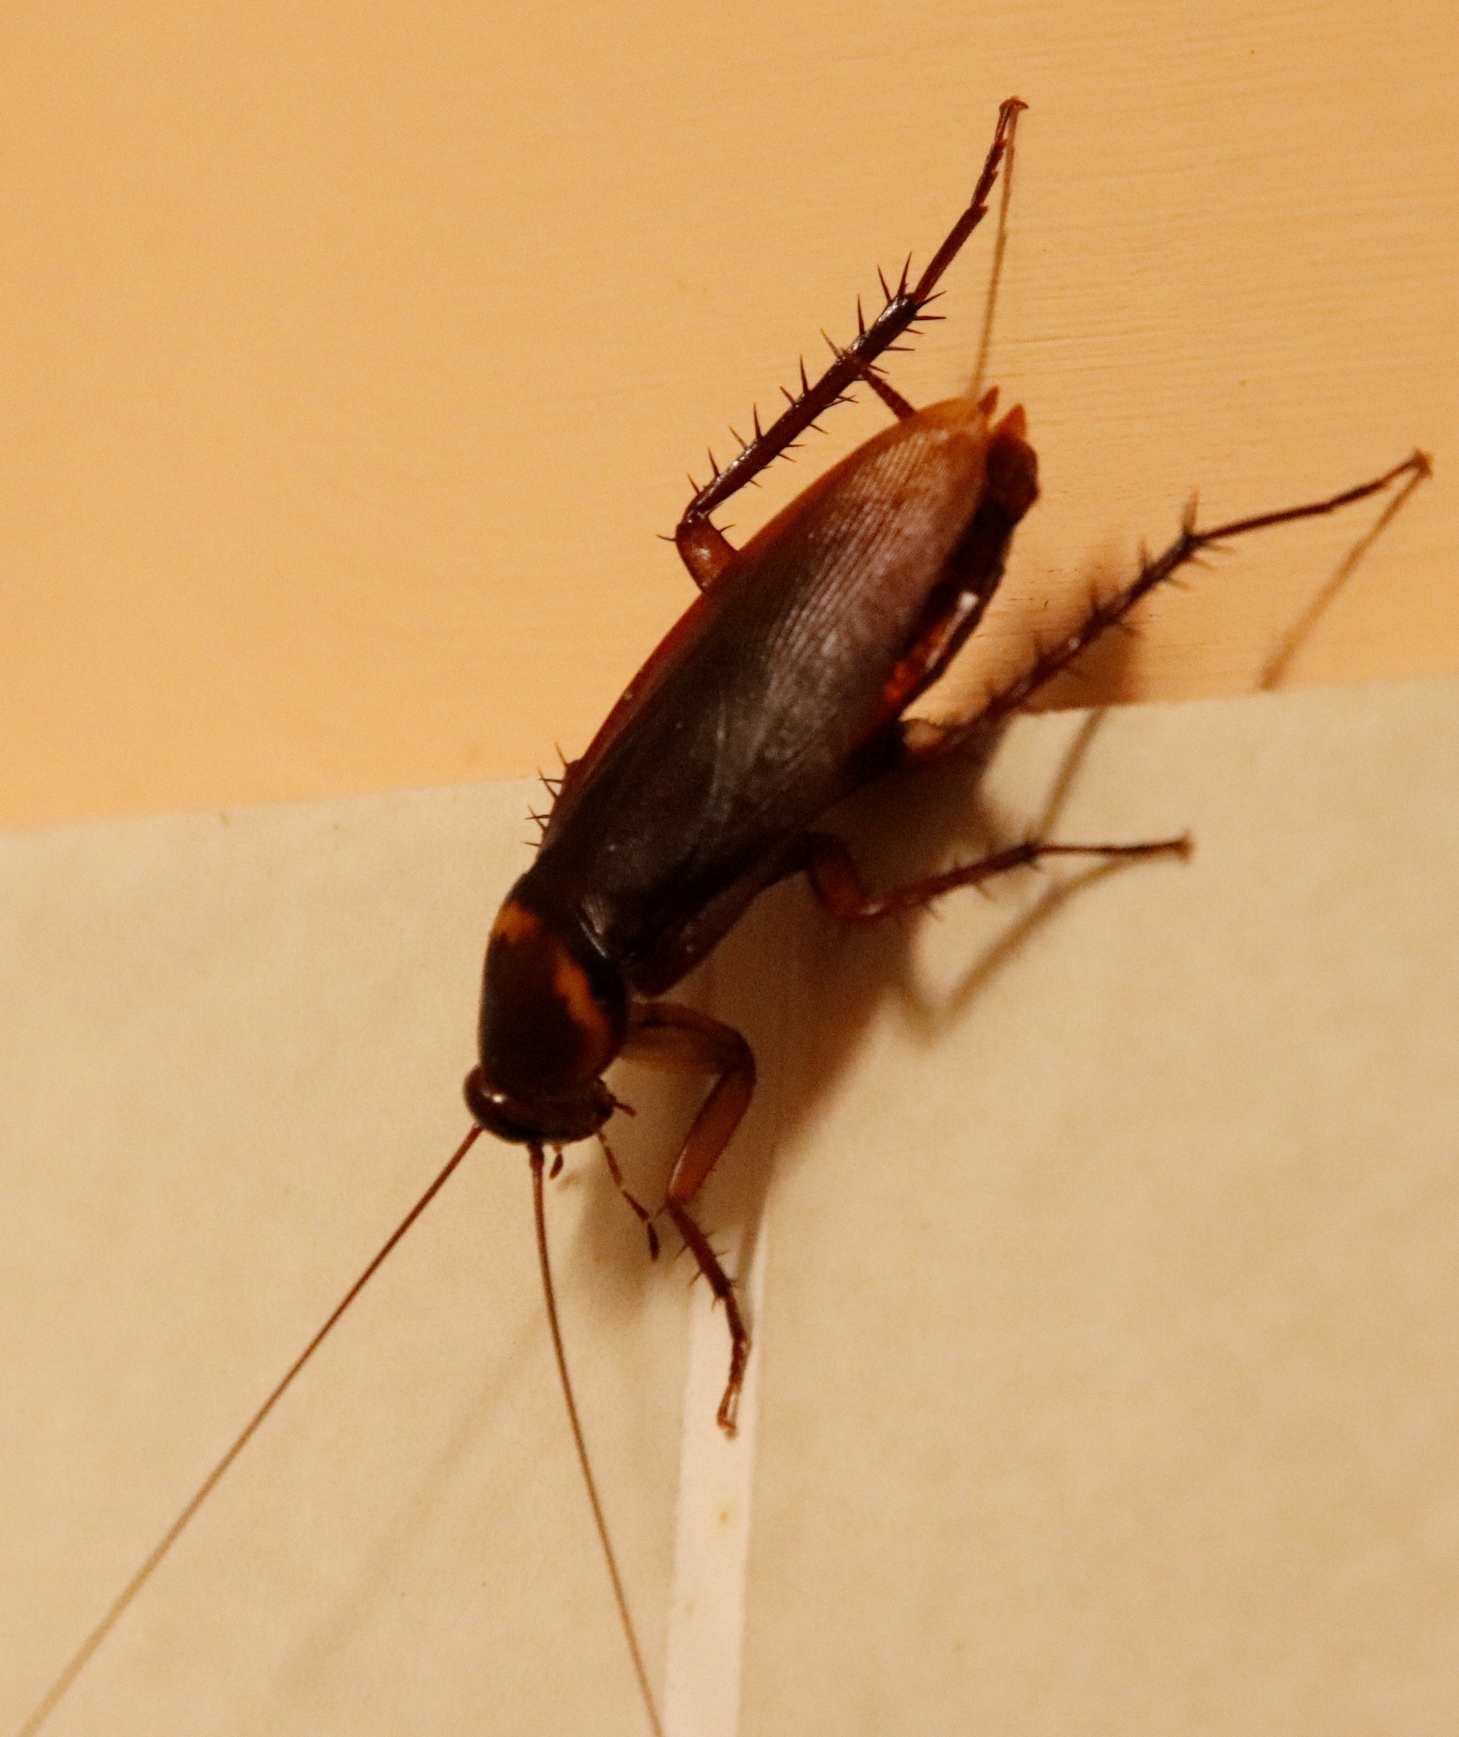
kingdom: Animalia
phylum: Arthropoda
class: Insecta
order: Blattodea
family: Blattidae
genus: Periplaneta
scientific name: Periplaneta americana
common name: American cockroach
